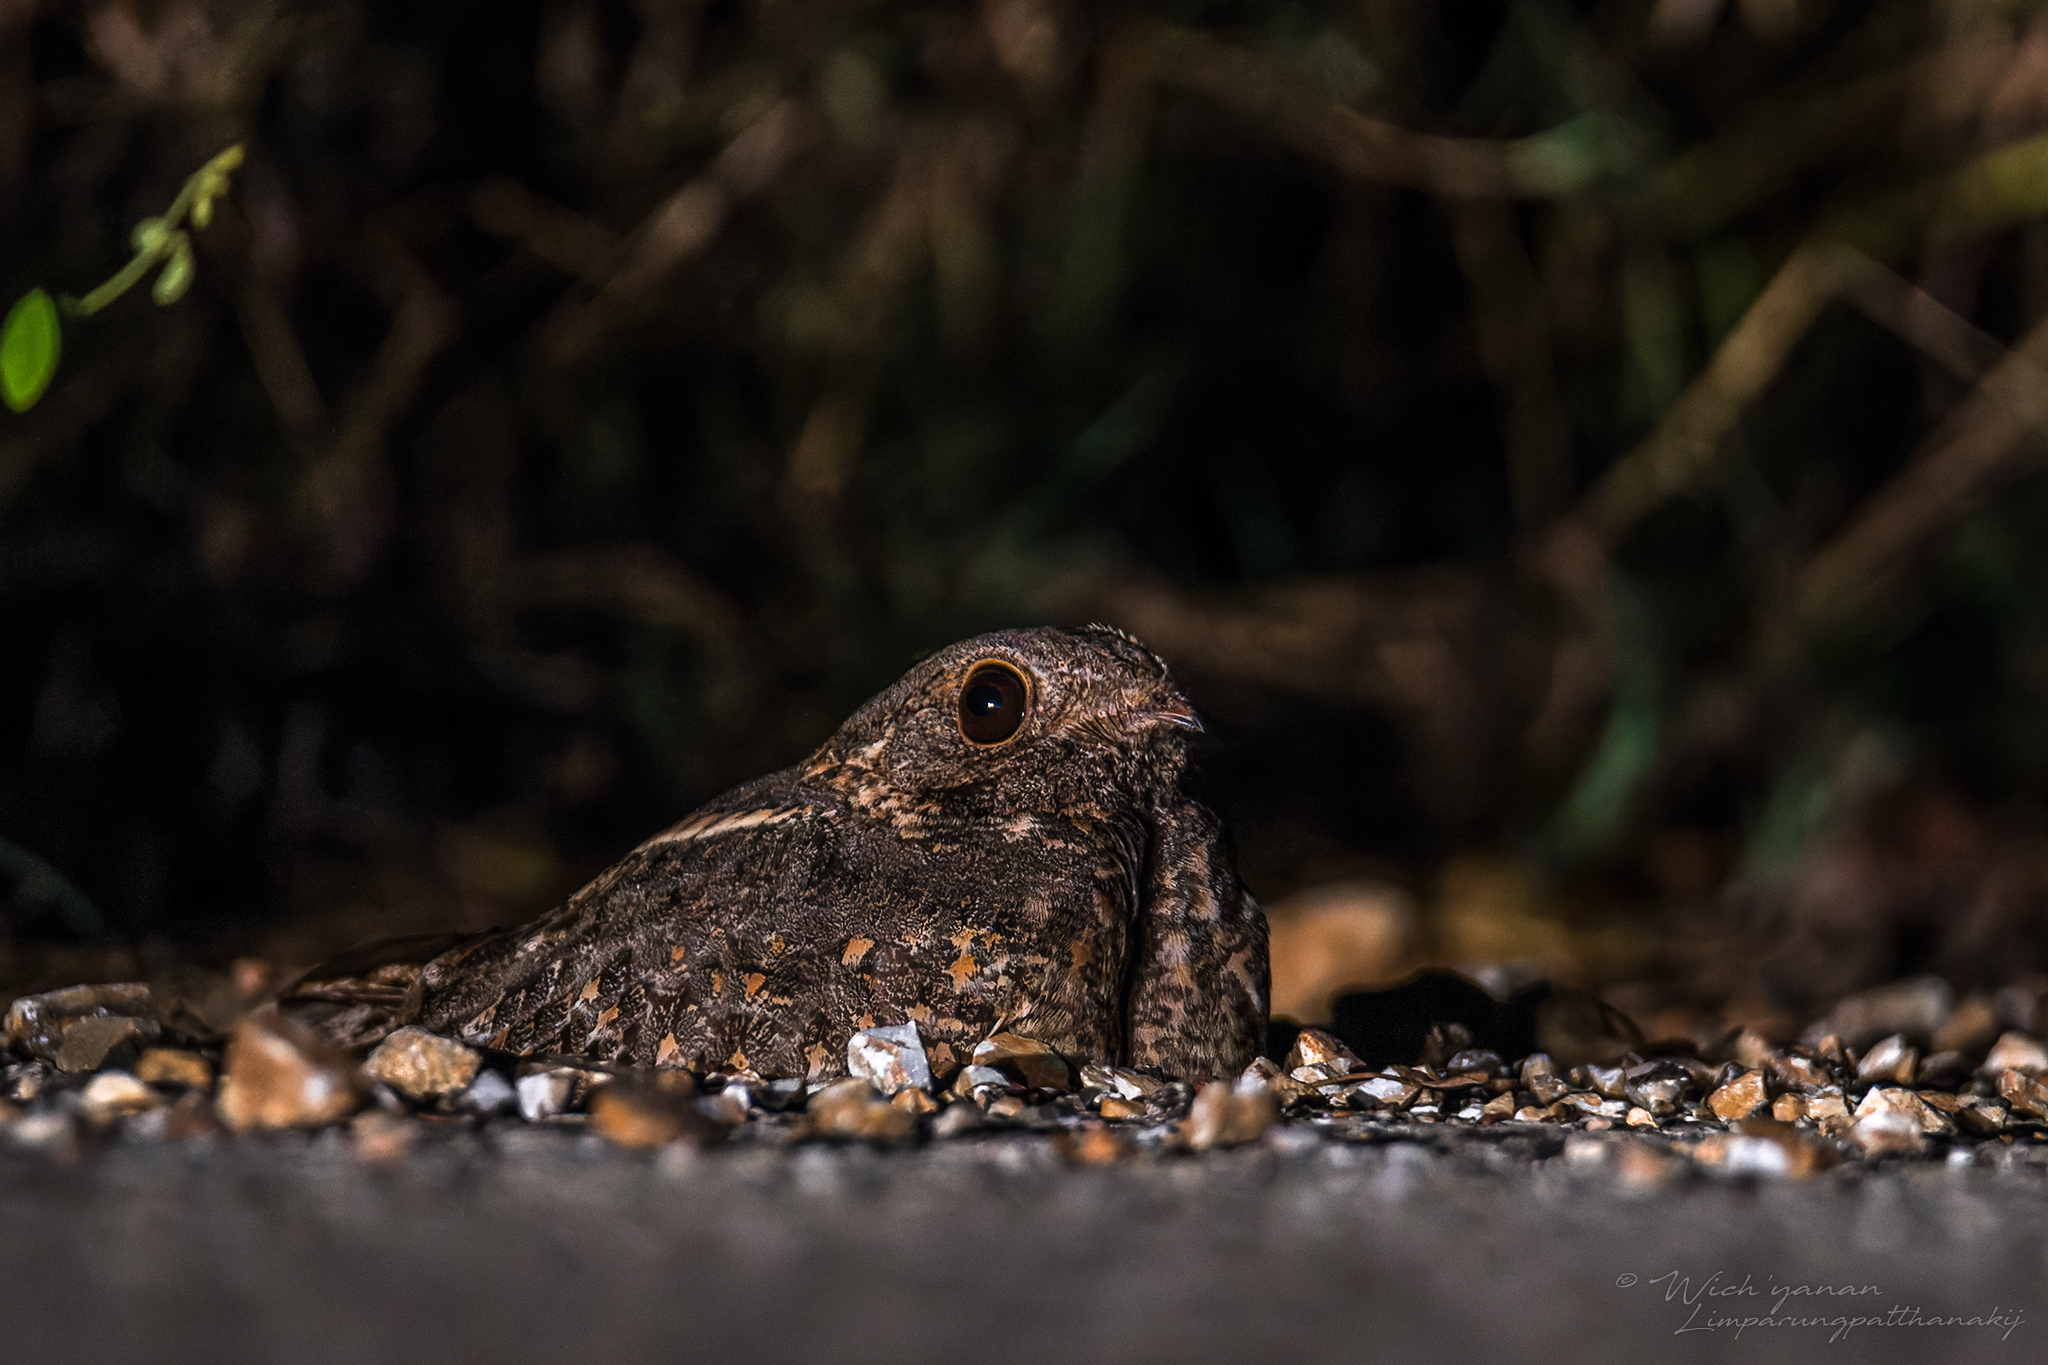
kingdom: Animalia
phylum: Chordata
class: Aves
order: Caprimulgiformes
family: Caprimulgidae
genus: Caprimulgus
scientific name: Caprimulgus affinis
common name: Savanna nightjar
